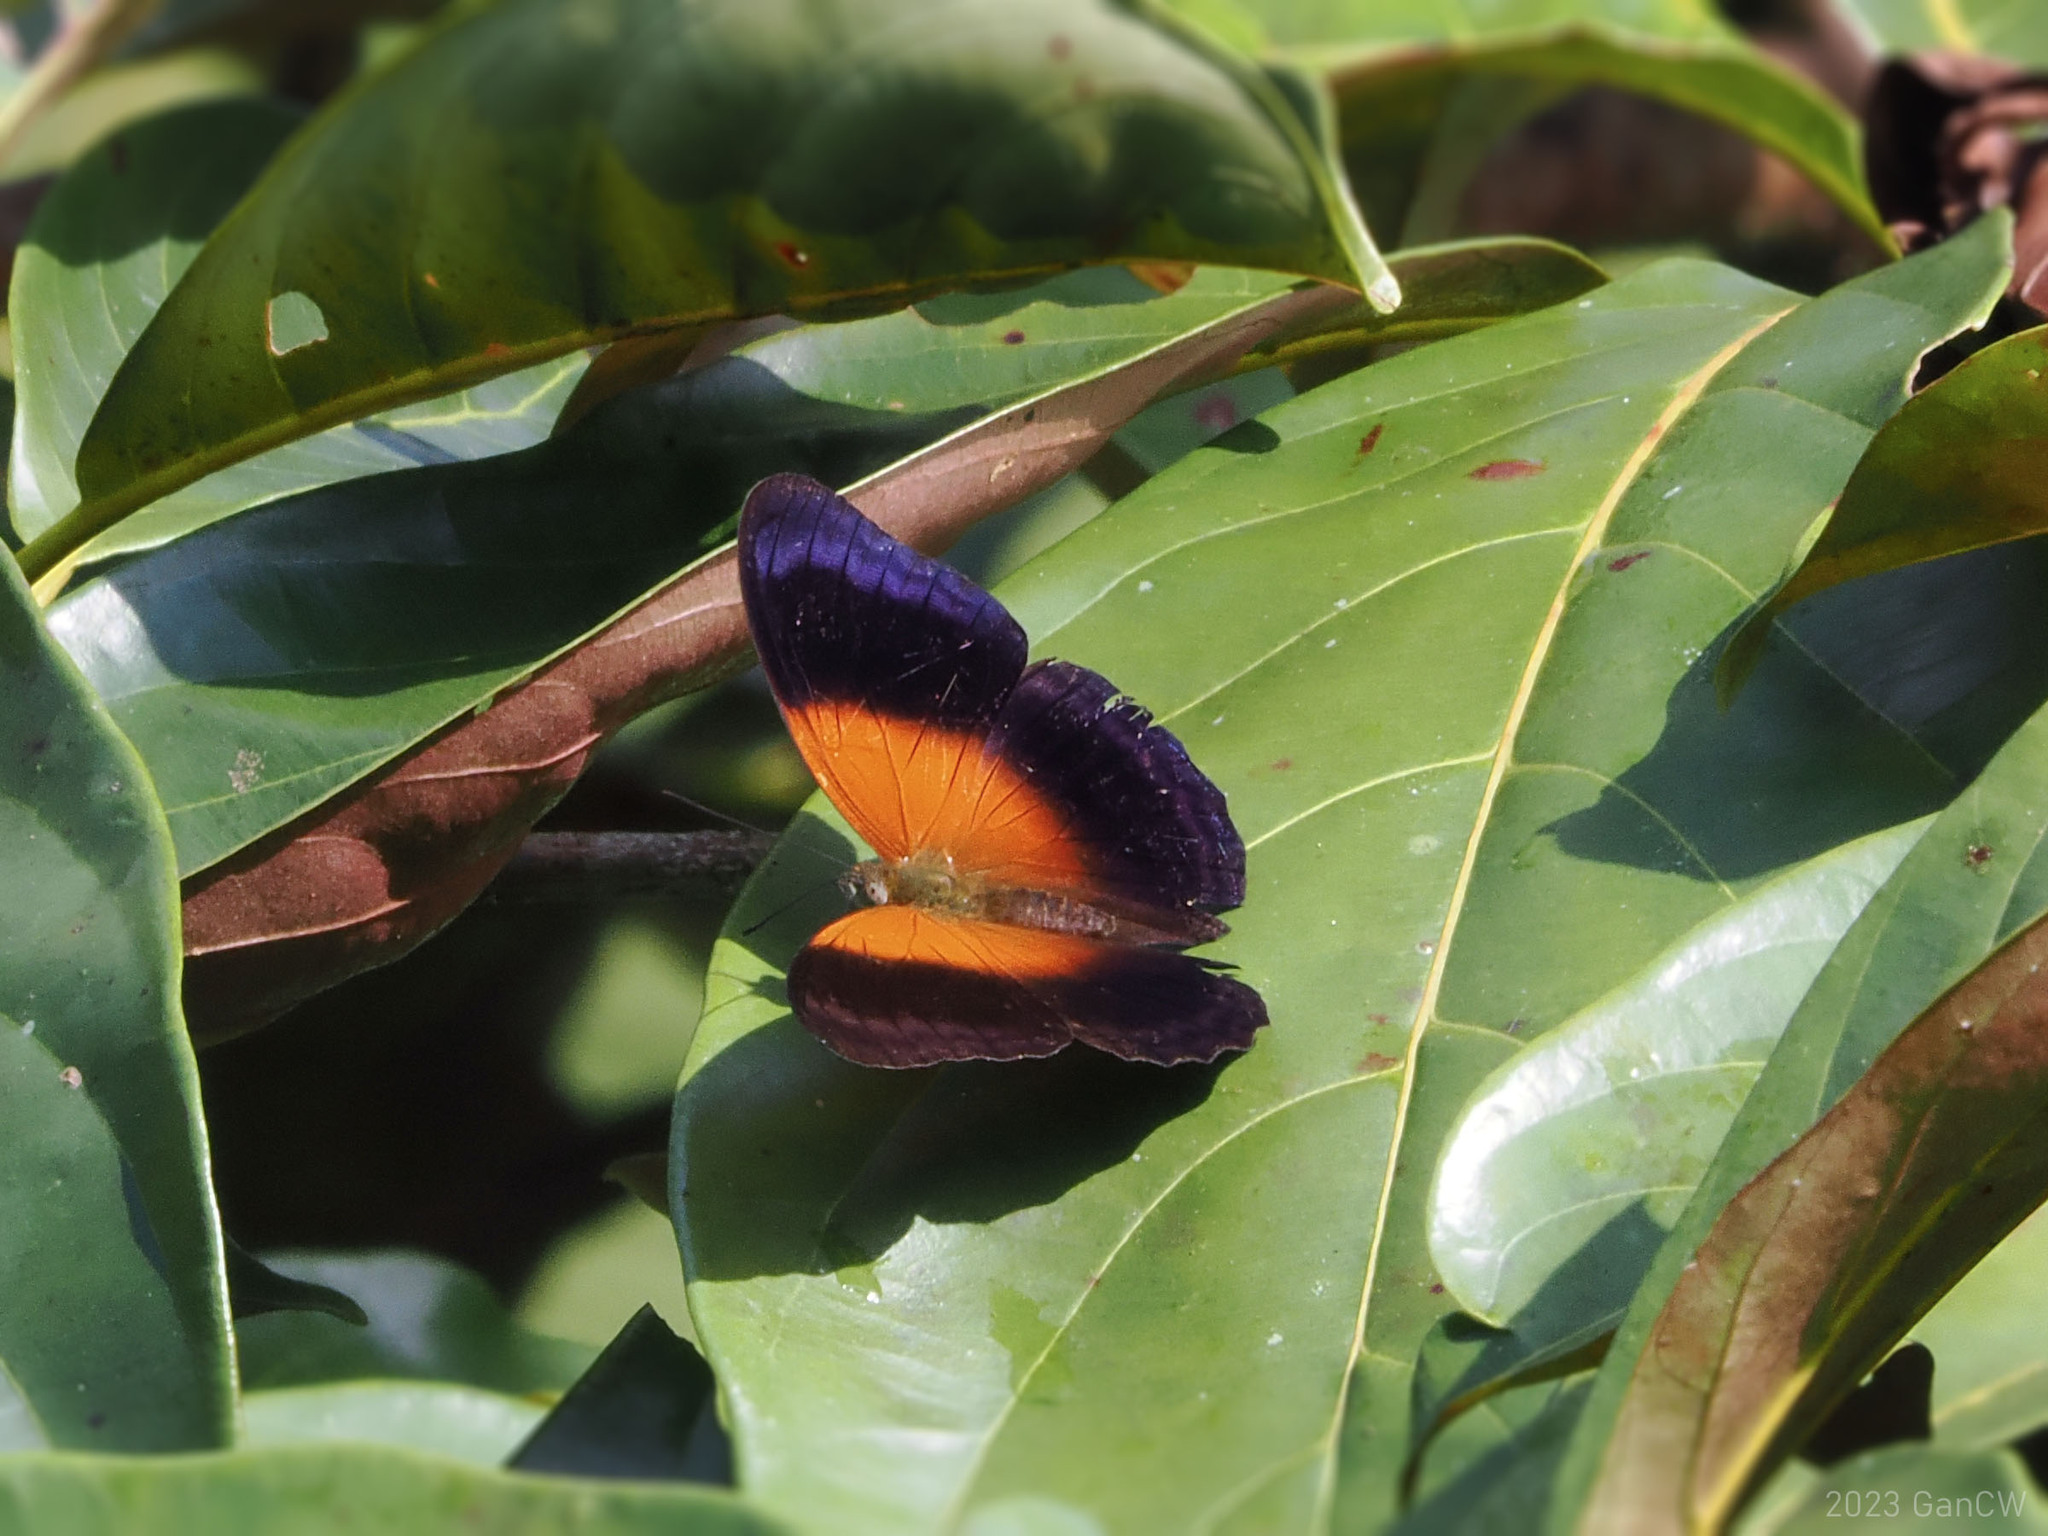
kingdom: Animalia
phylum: Arthropoda
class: Insecta
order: Lepidoptera
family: Nymphalidae
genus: Cirrochroa
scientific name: Cirrochroa regina
